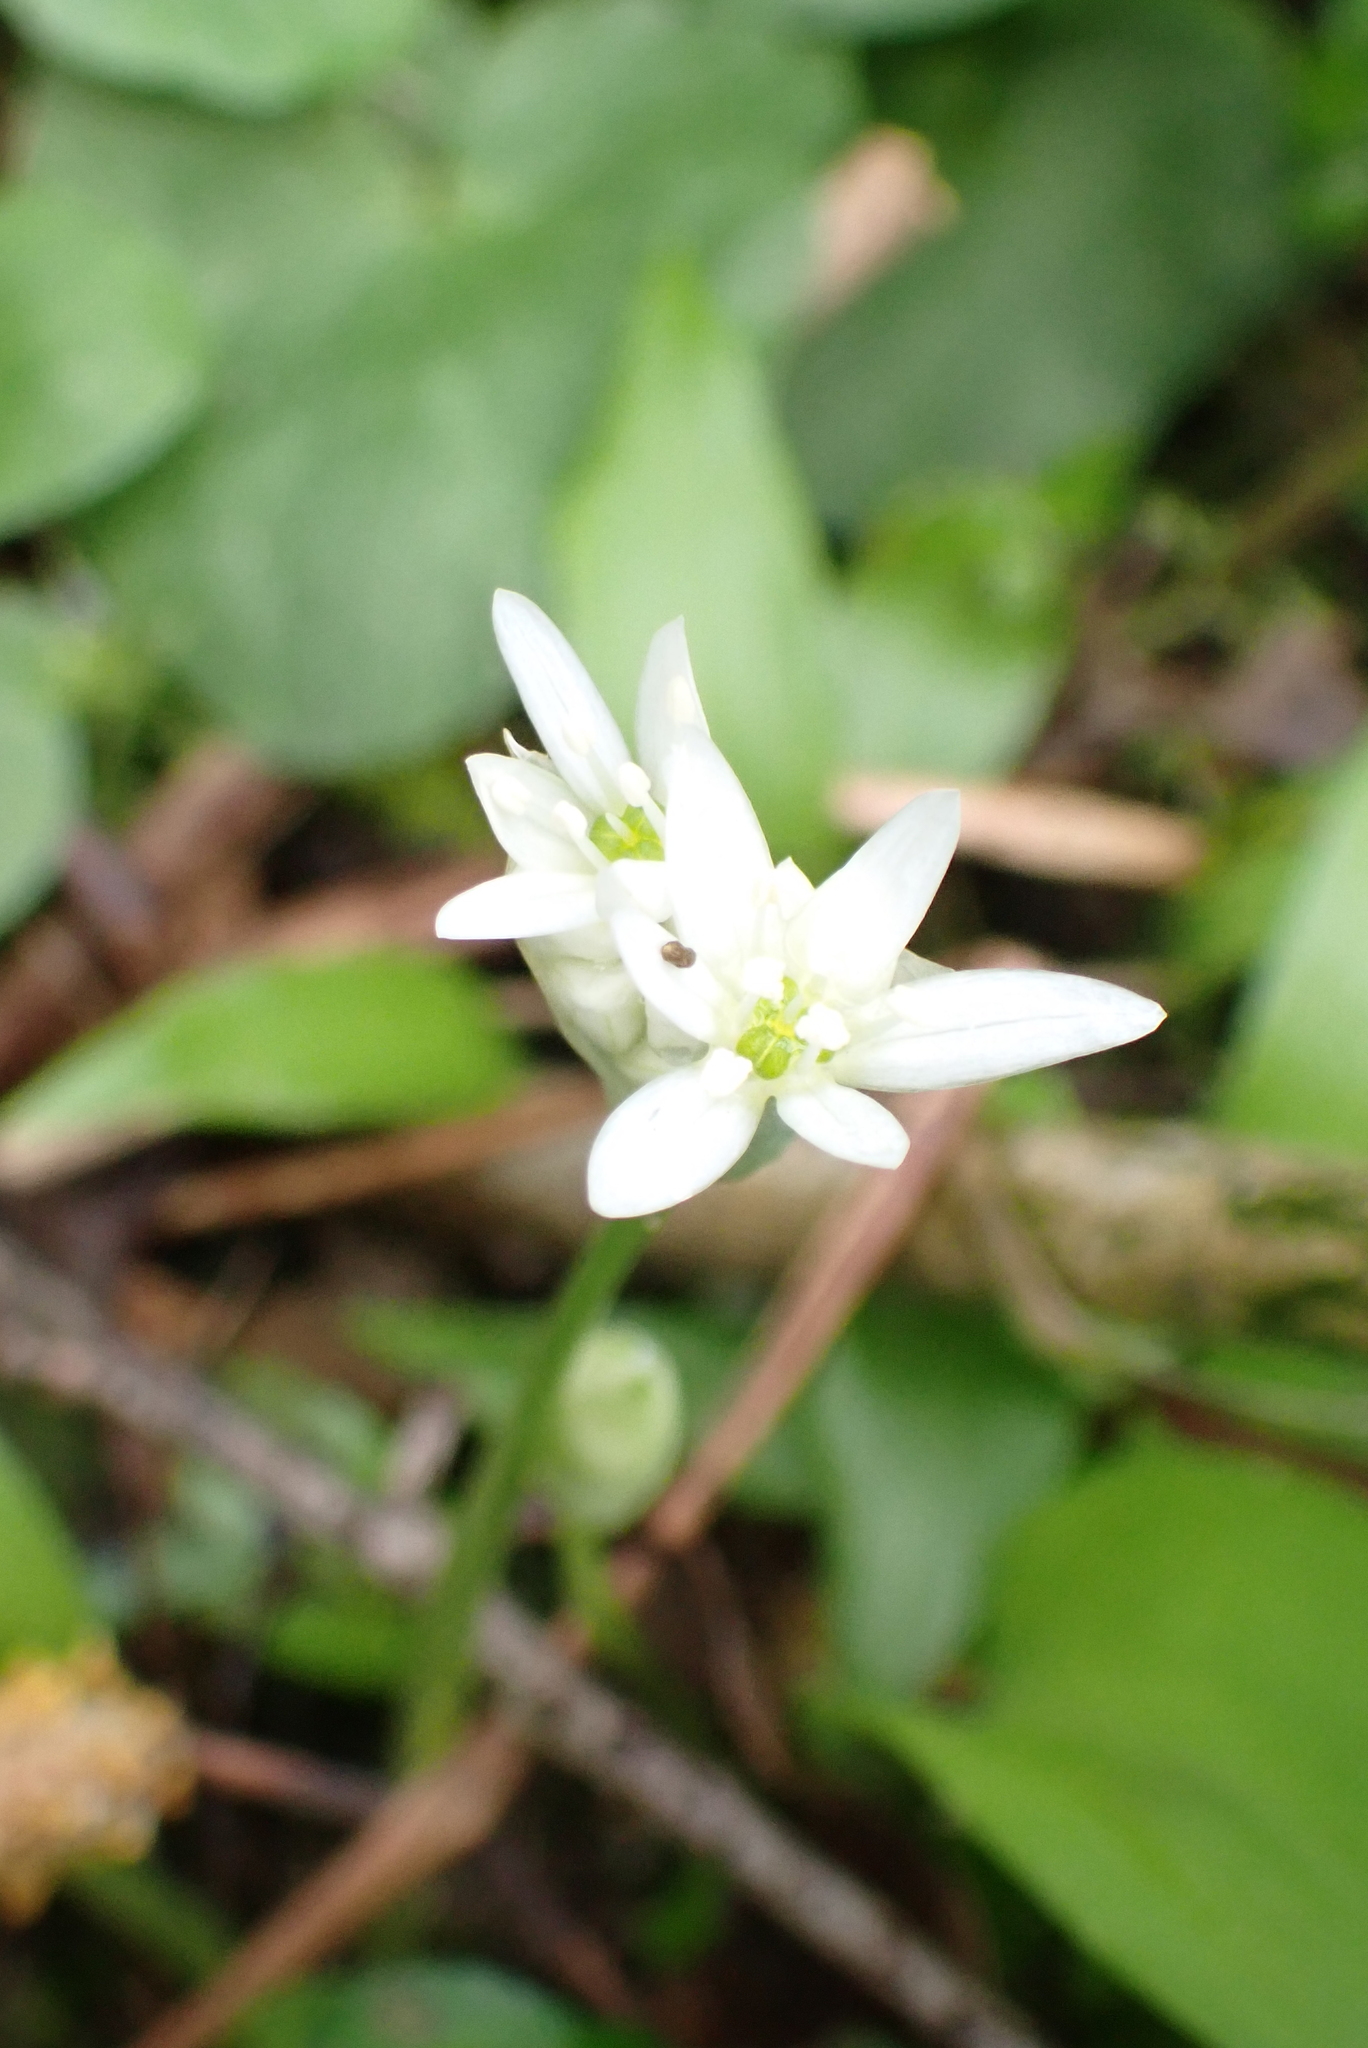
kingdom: Plantae
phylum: Tracheophyta
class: Liliopsida
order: Asparagales
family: Amaryllidaceae
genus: Allium
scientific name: Allium ursinum
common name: Ramsons
